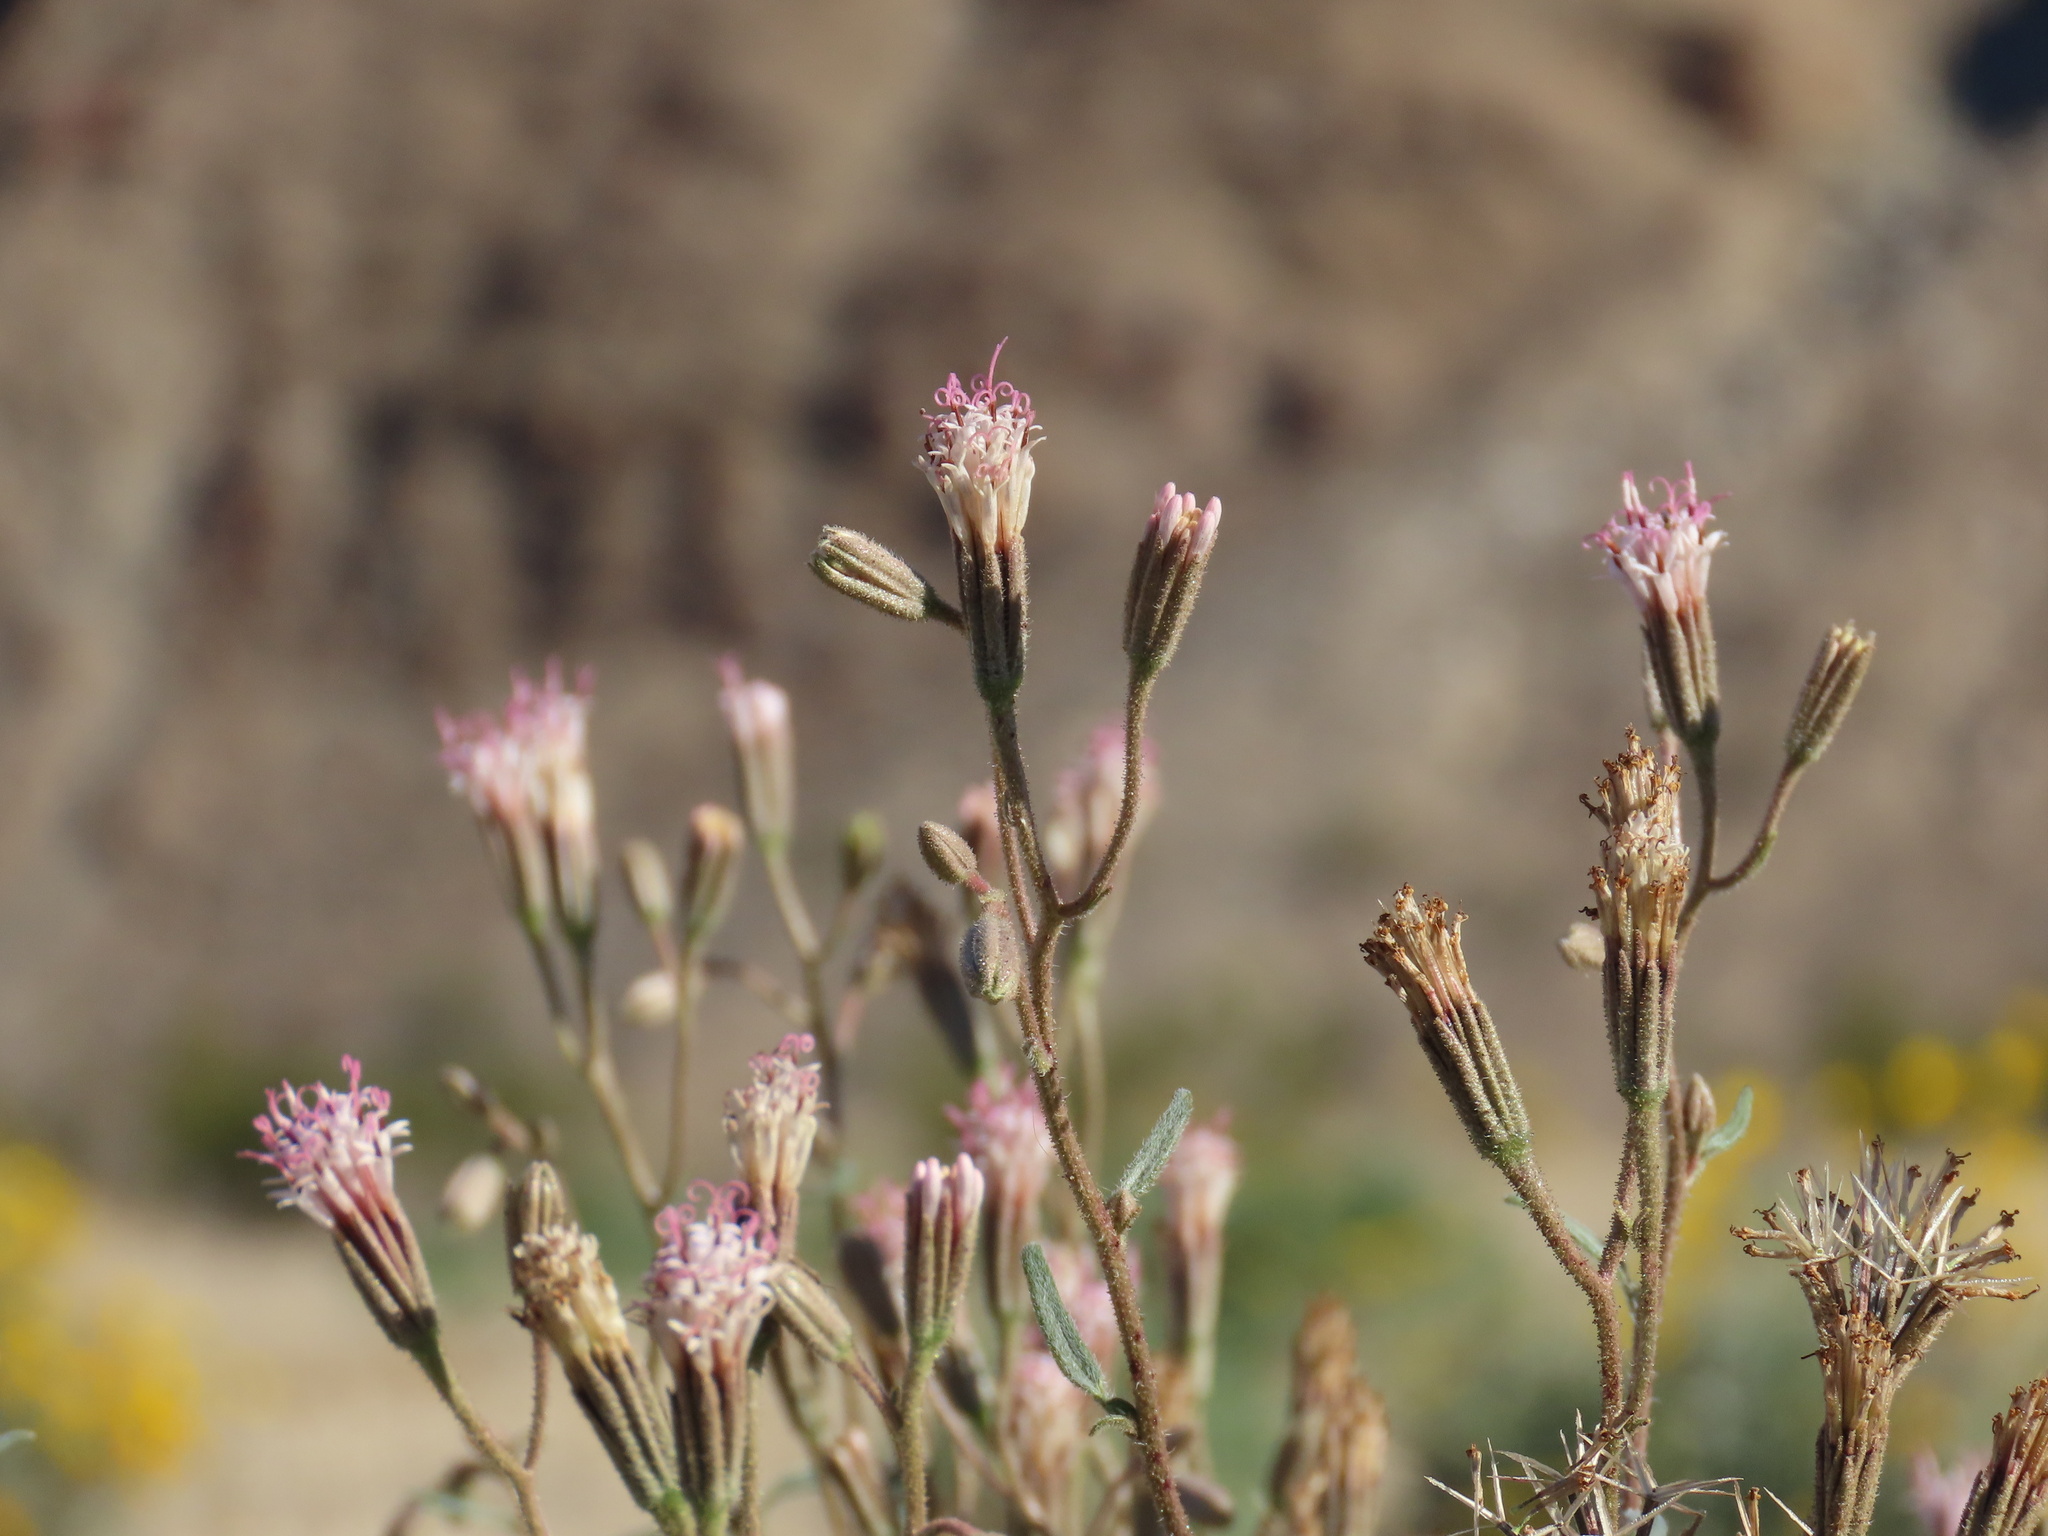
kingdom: Plantae
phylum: Tracheophyta
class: Magnoliopsida
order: Asterales
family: Asteraceae
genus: Palafoxia
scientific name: Palafoxia arida
